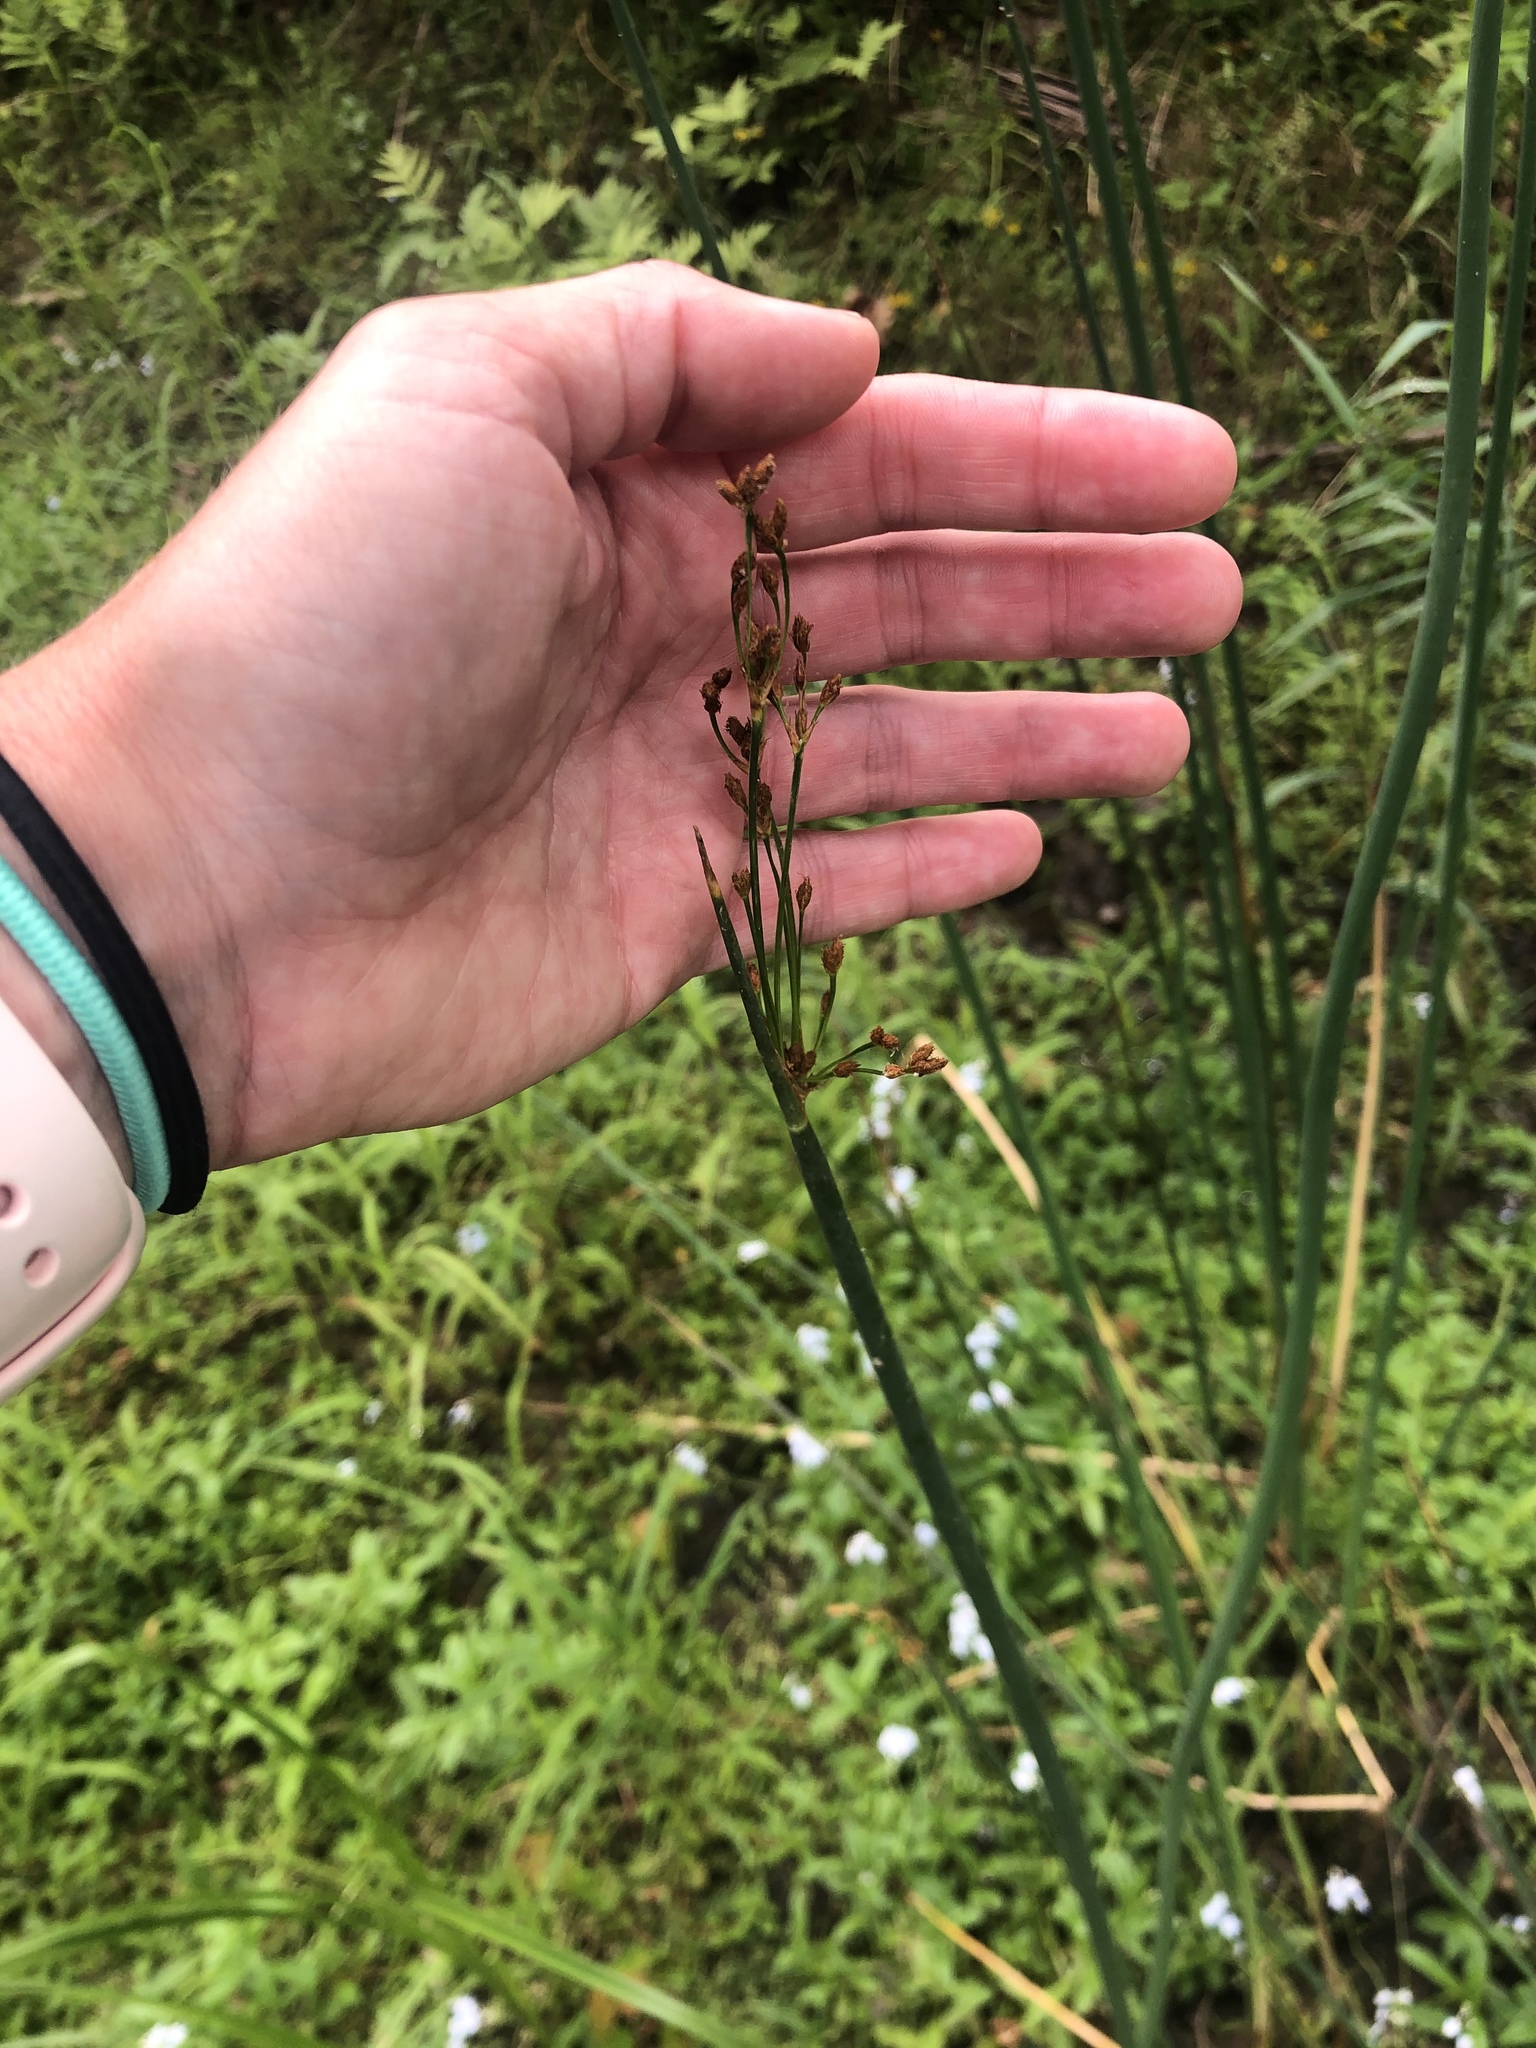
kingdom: Plantae
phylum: Tracheophyta
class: Liliopsida
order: Poales
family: Cyperaceae
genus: Schoenoplectus
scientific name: Schoenoplectus tabernaemontani
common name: Grey club-rush
